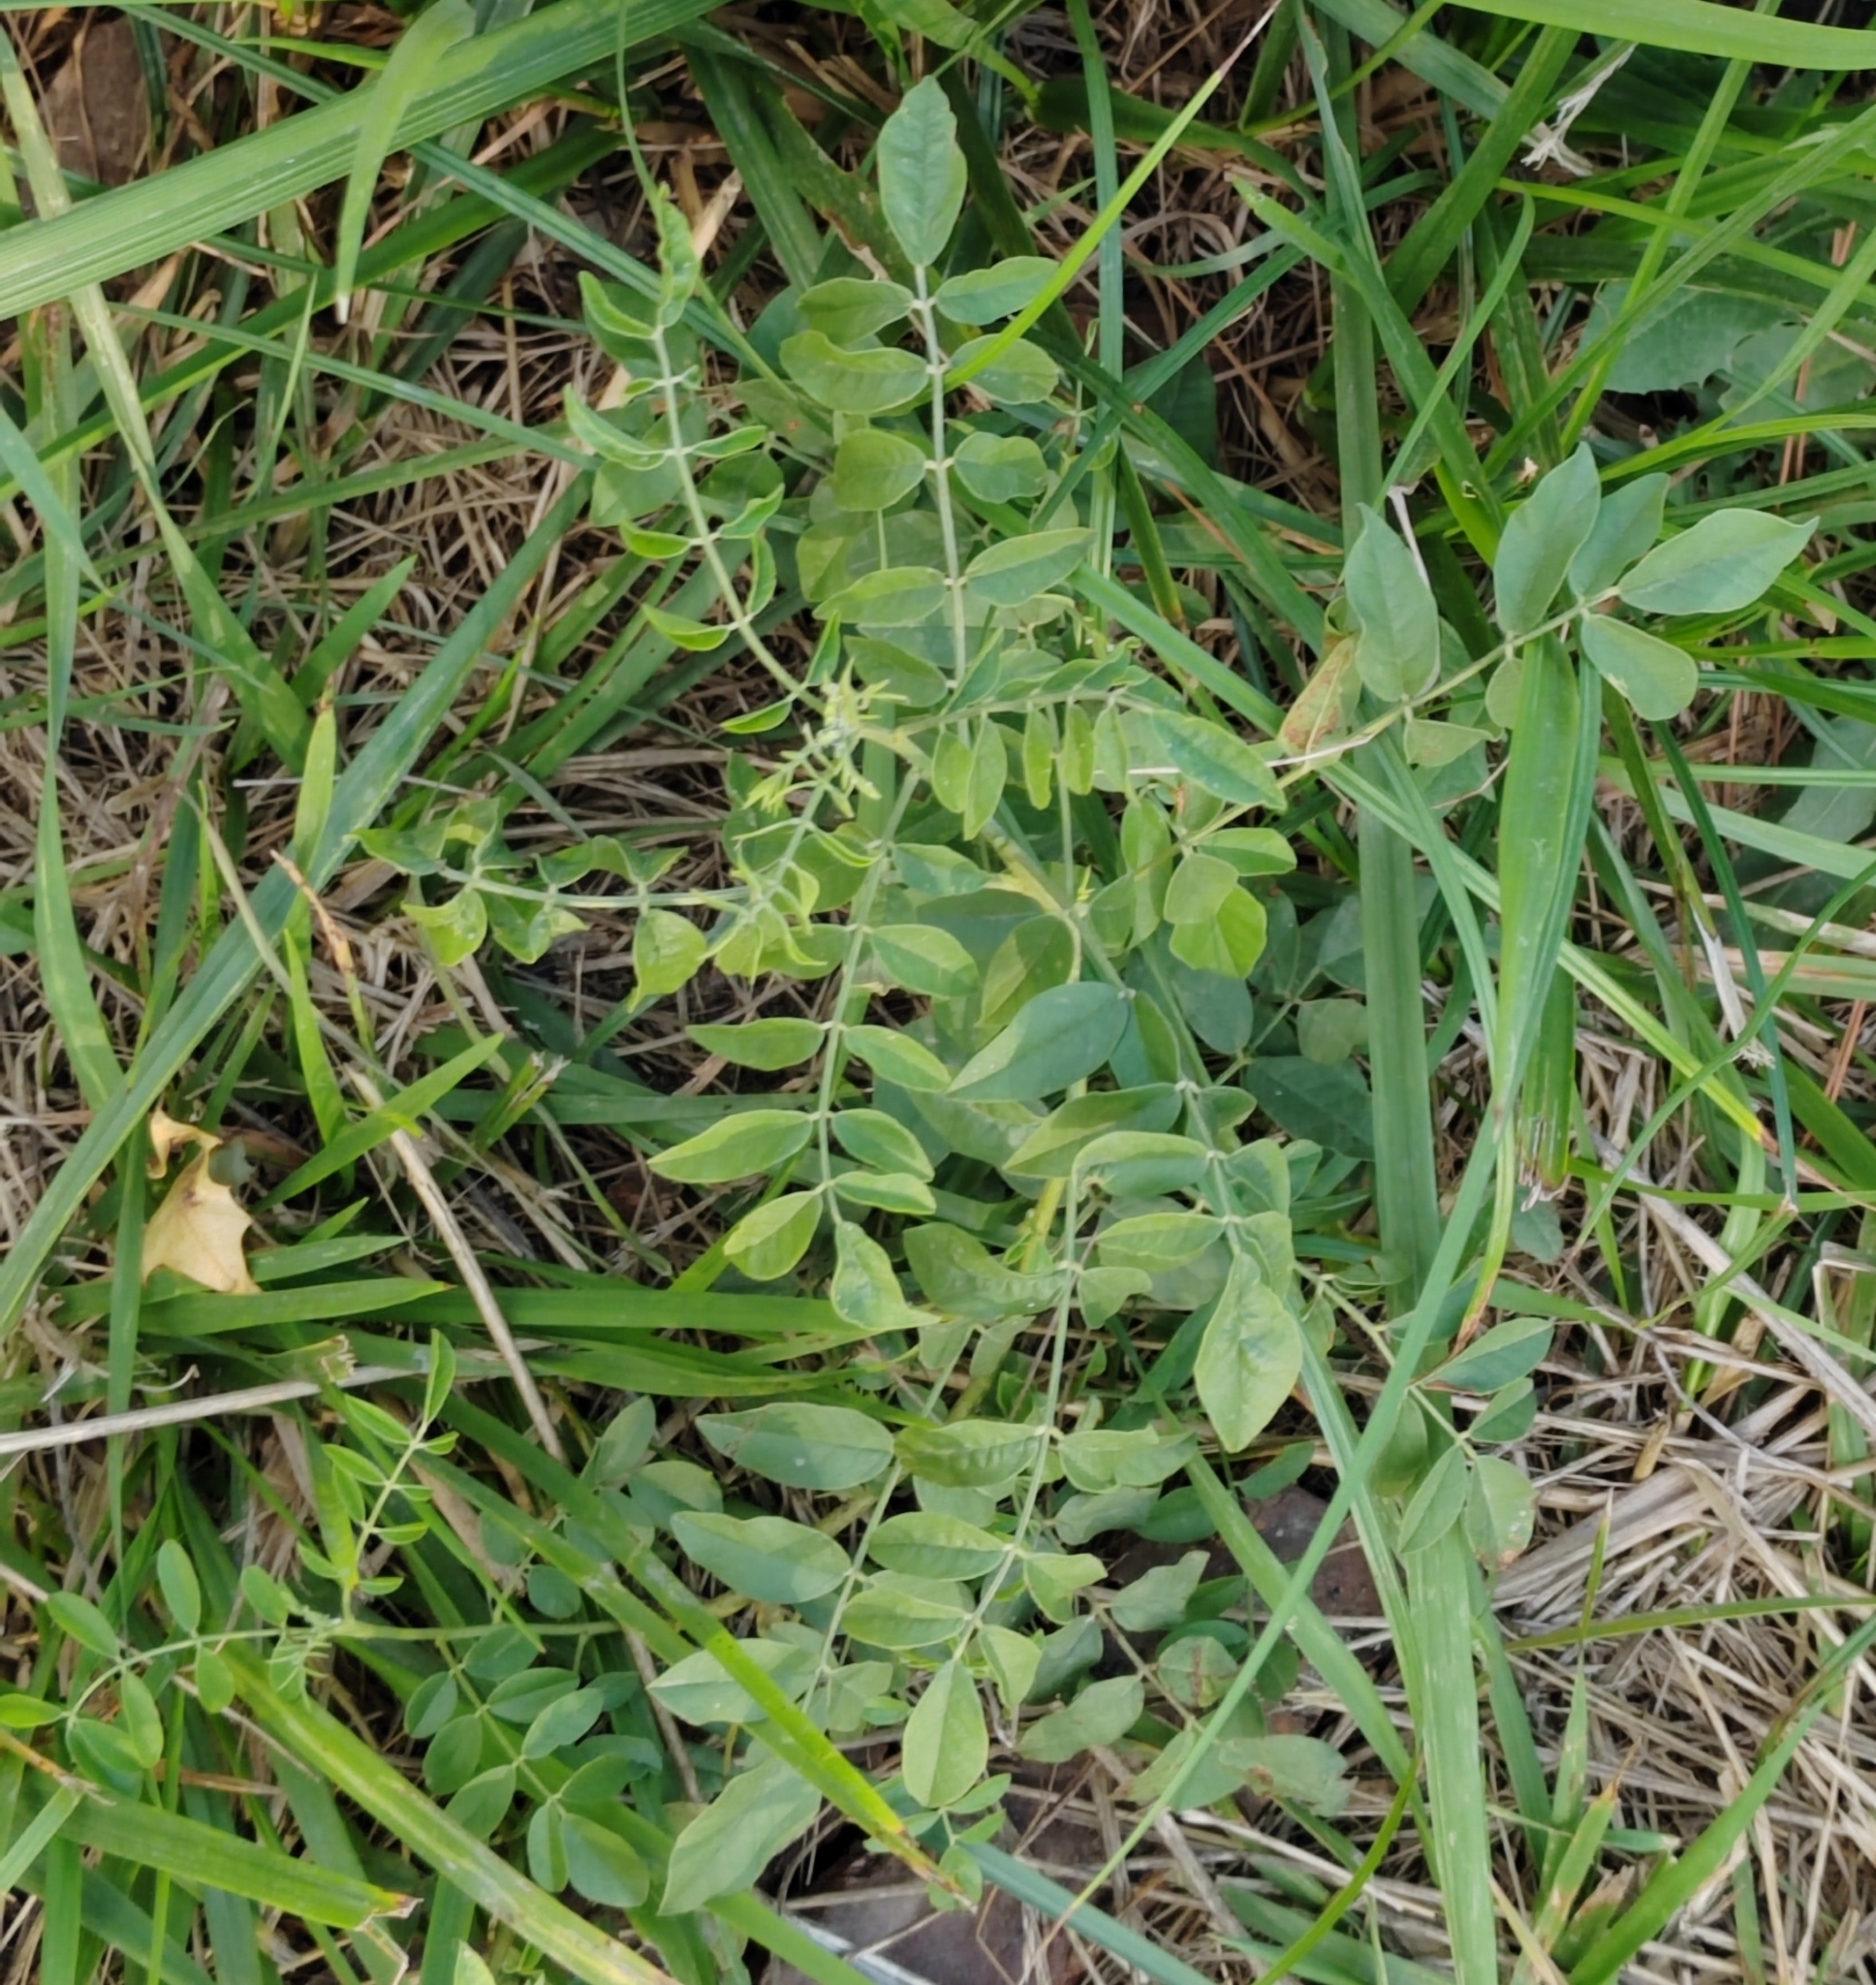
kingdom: Plantae
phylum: Tracheophyta
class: Magnoliopsida
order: Fabales
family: Fabaceae
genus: Glycyrrhiza
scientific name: Glycyrrhiza glabra
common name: Liquorice
